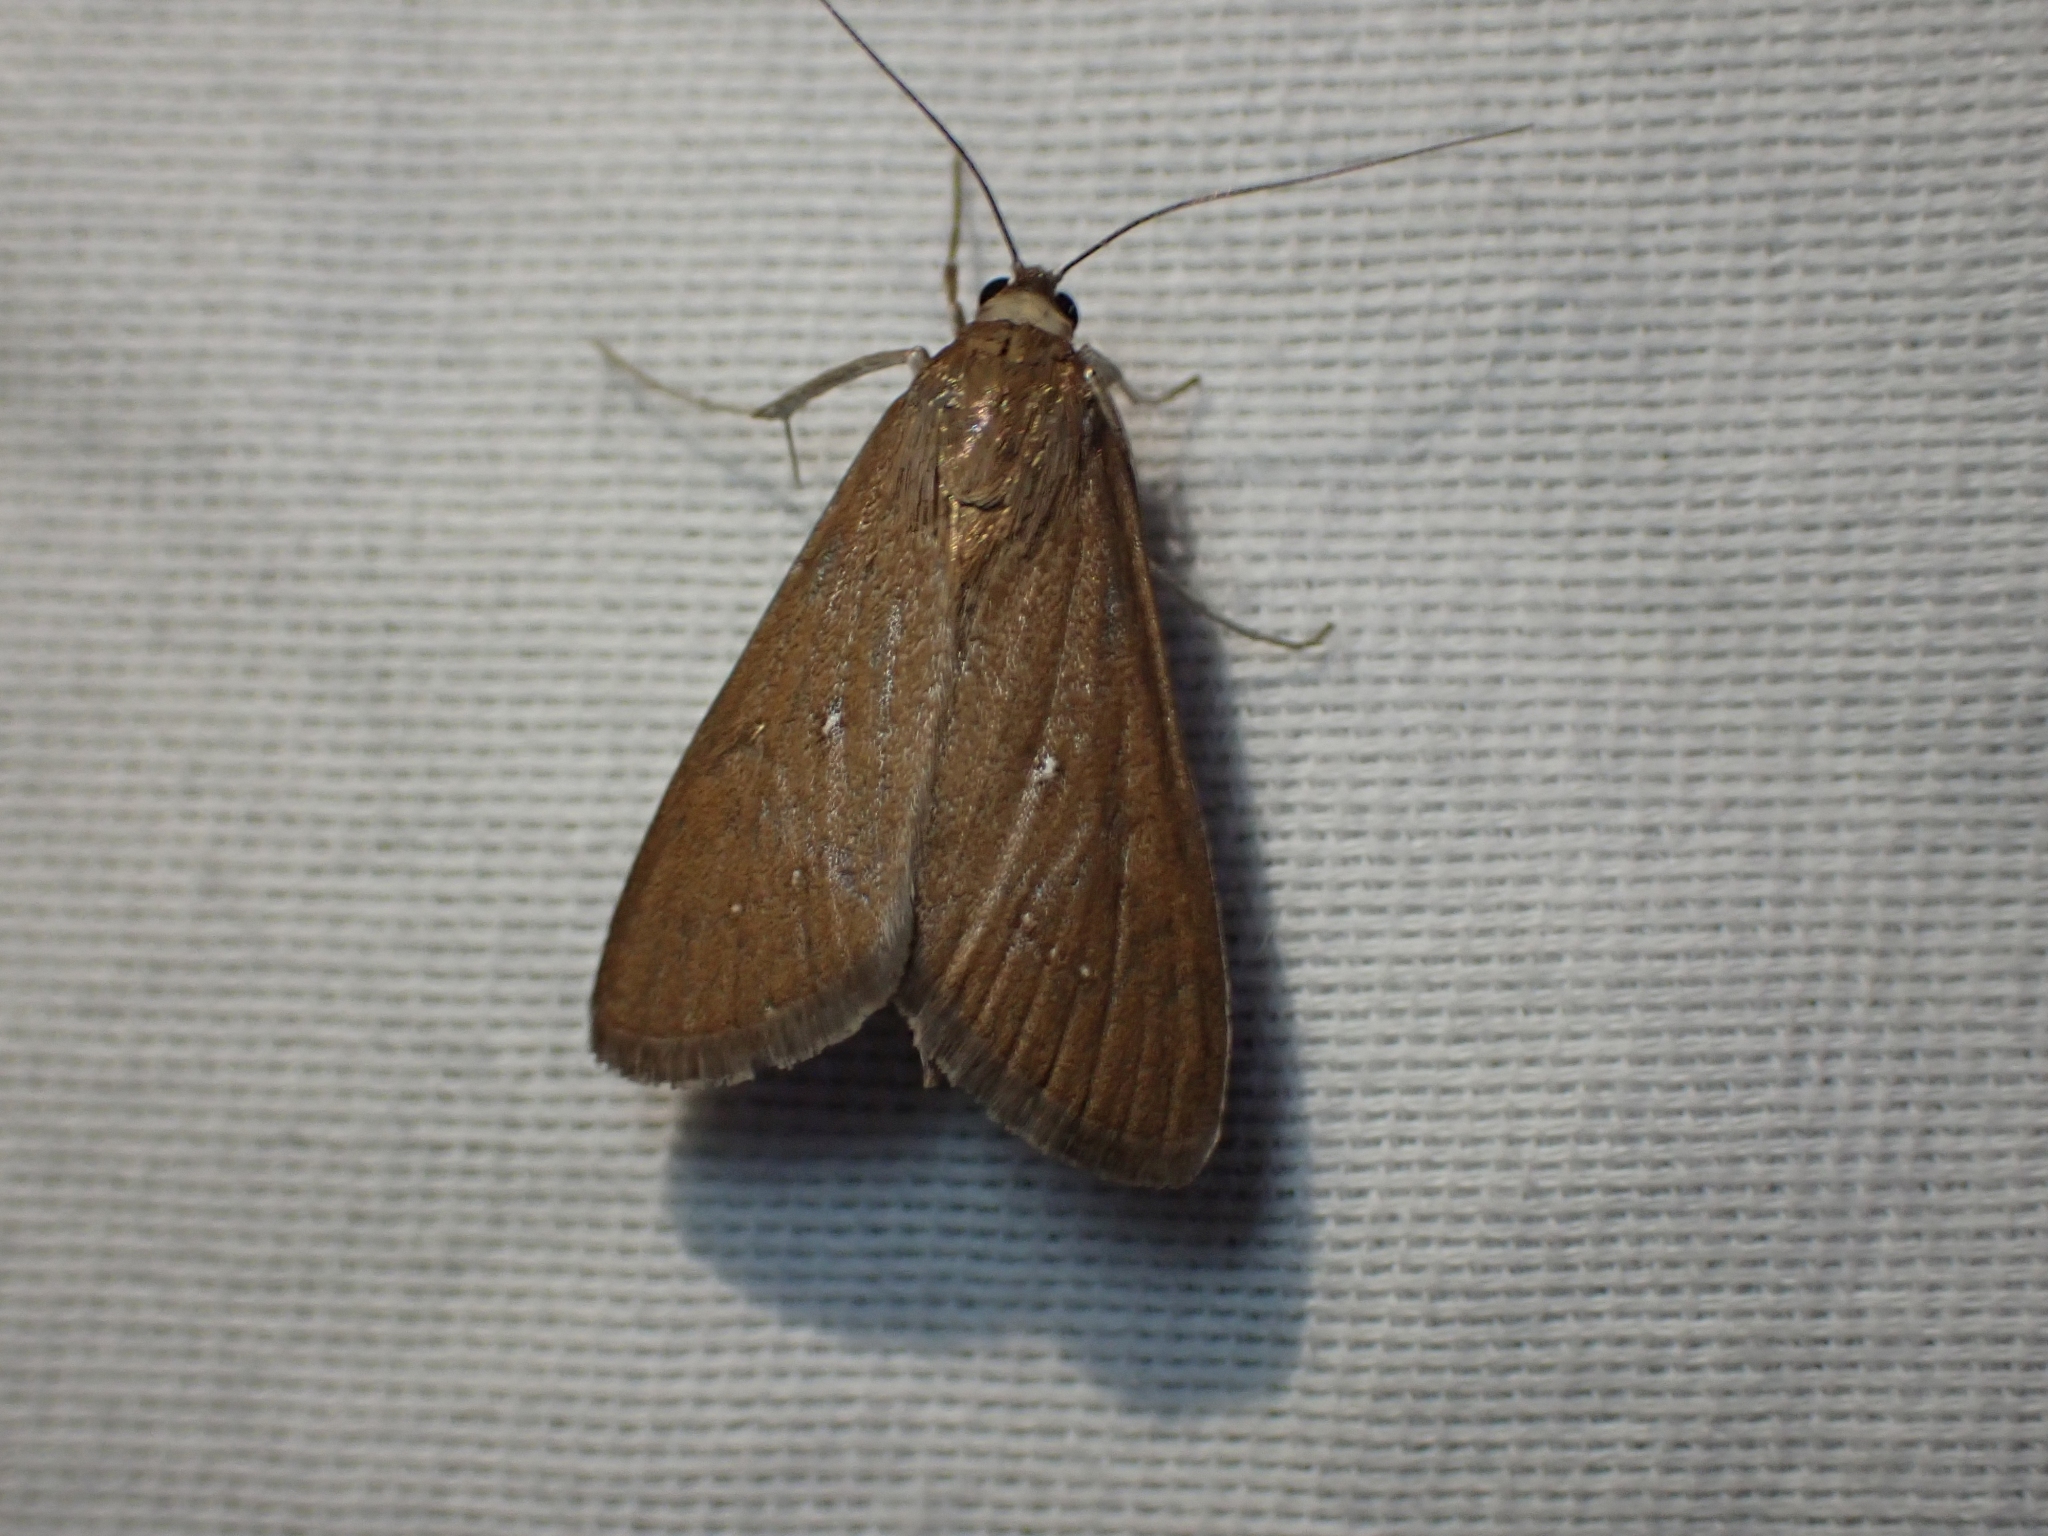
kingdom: Animalia
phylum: Arthropoda
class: Insecta
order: Lepidoptera
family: Crambidae
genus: Diastictis
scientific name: Diastictis ventralis
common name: White-spotted brown
